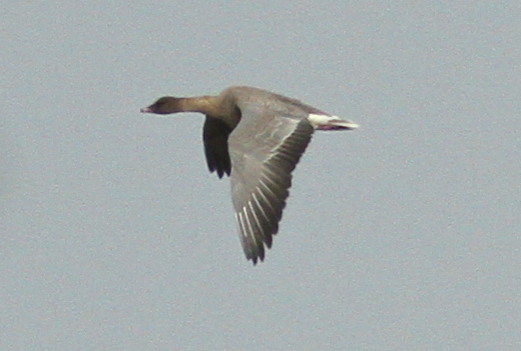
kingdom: Animalia
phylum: Chordata
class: Aves
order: Anseriformes
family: Anatidae
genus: Anser
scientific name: Anser brachyrhynchus
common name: Pink-footed goose
